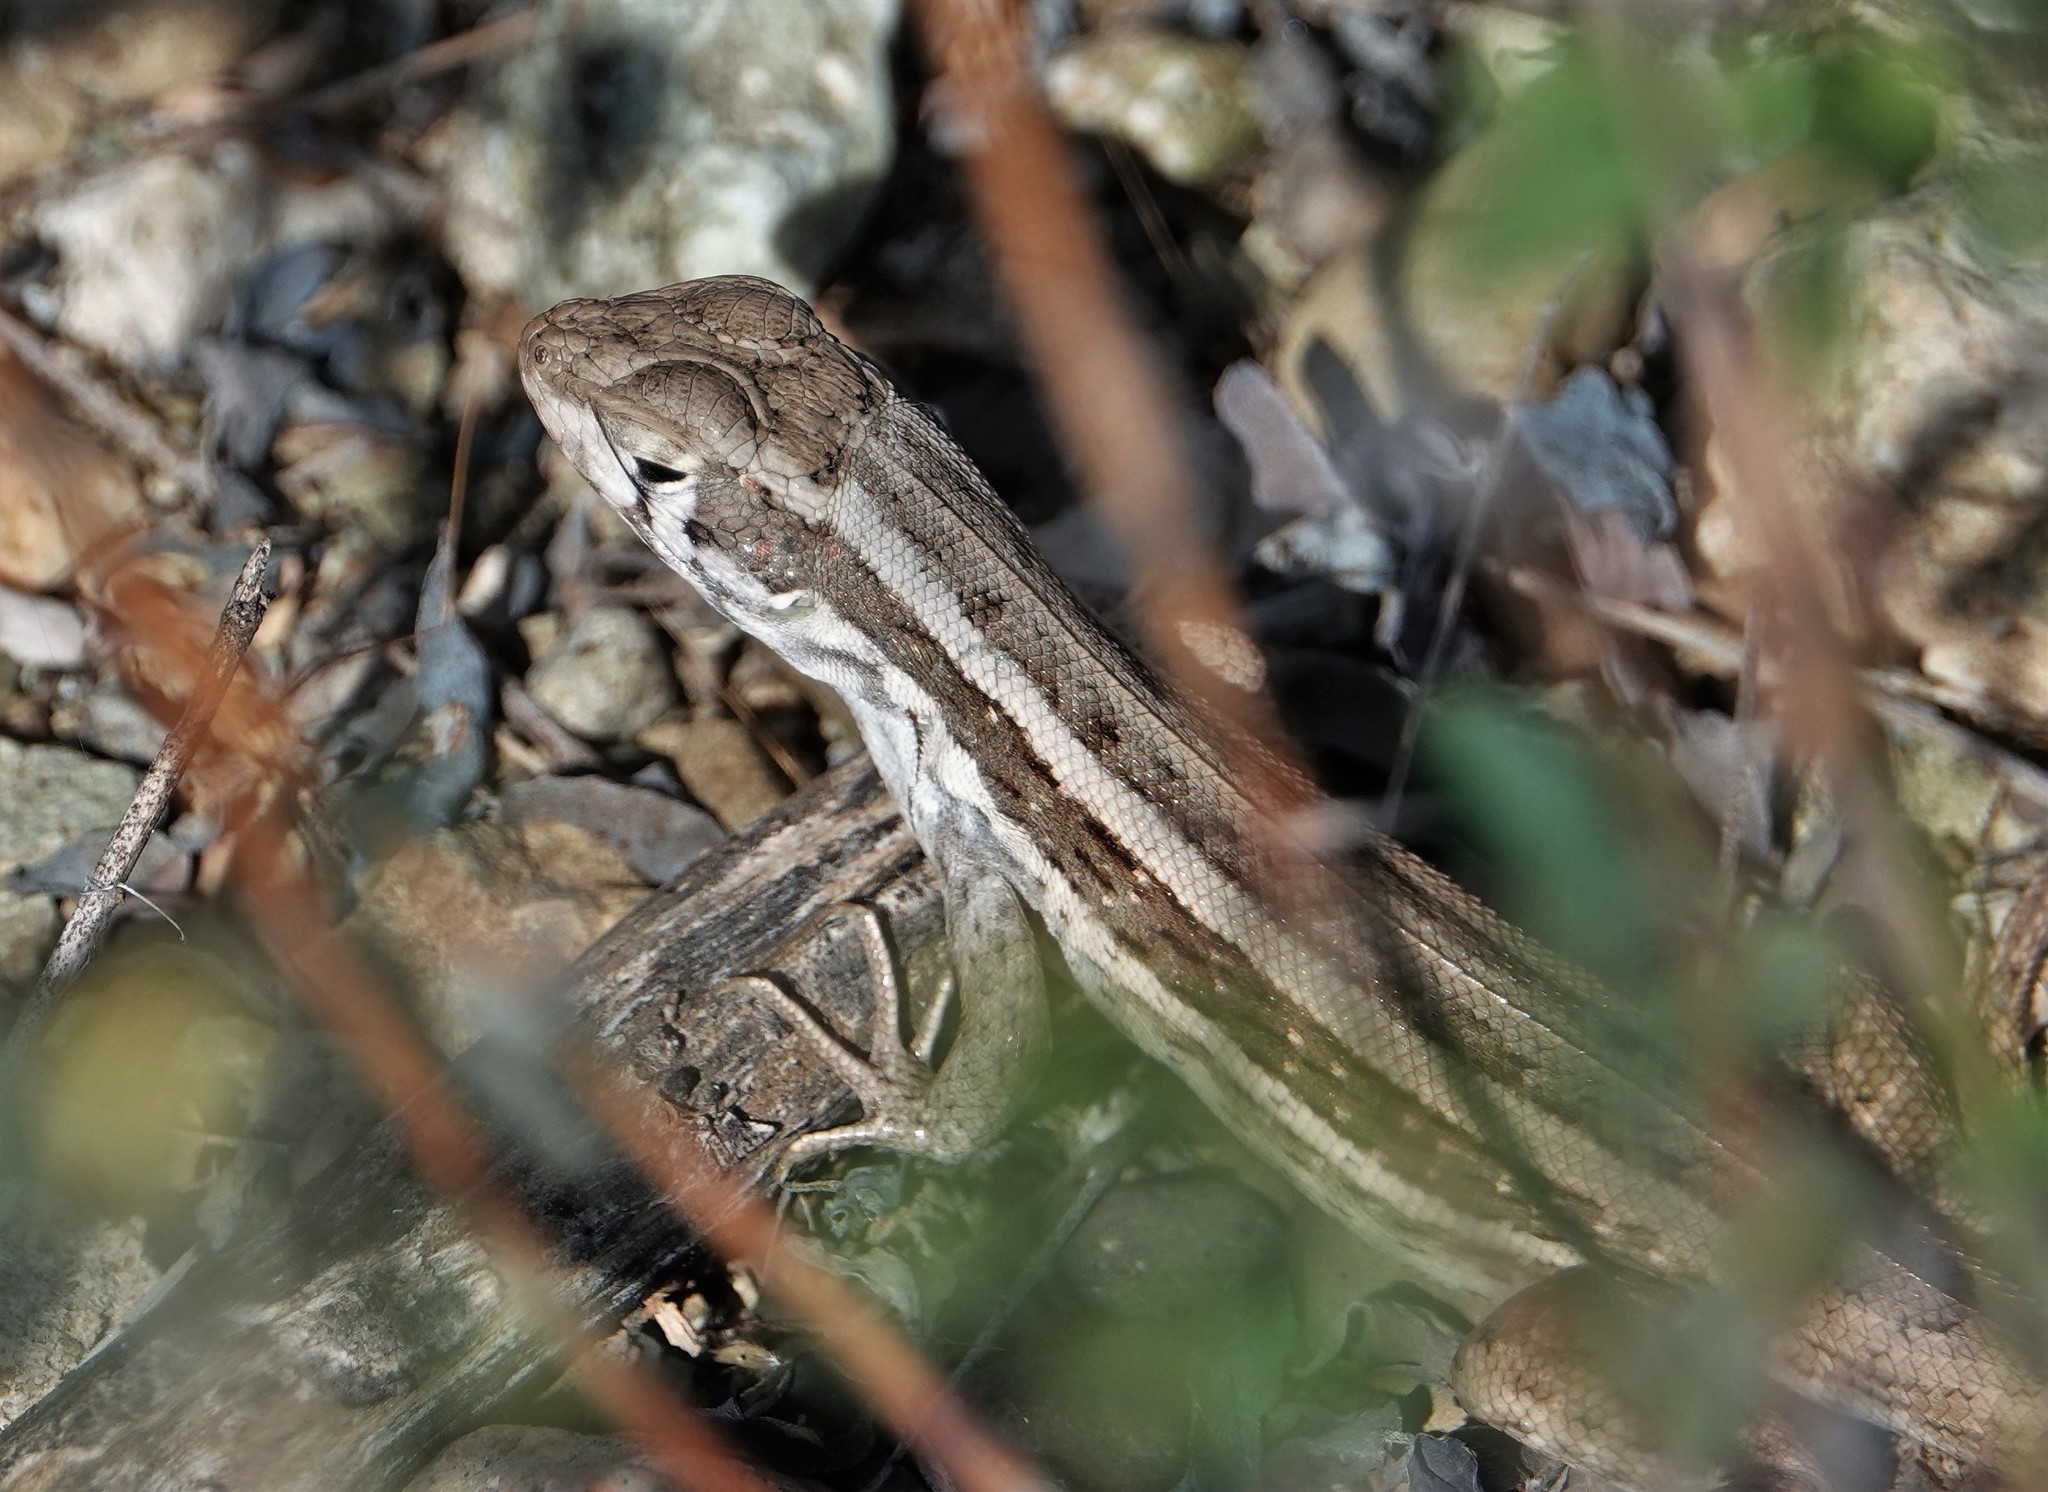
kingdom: Animalia
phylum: Chordata
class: Squamata
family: Leiocephalidae
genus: Leiocephalus
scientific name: Leiocephalus raviceps
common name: Mountain curlytail lizard
